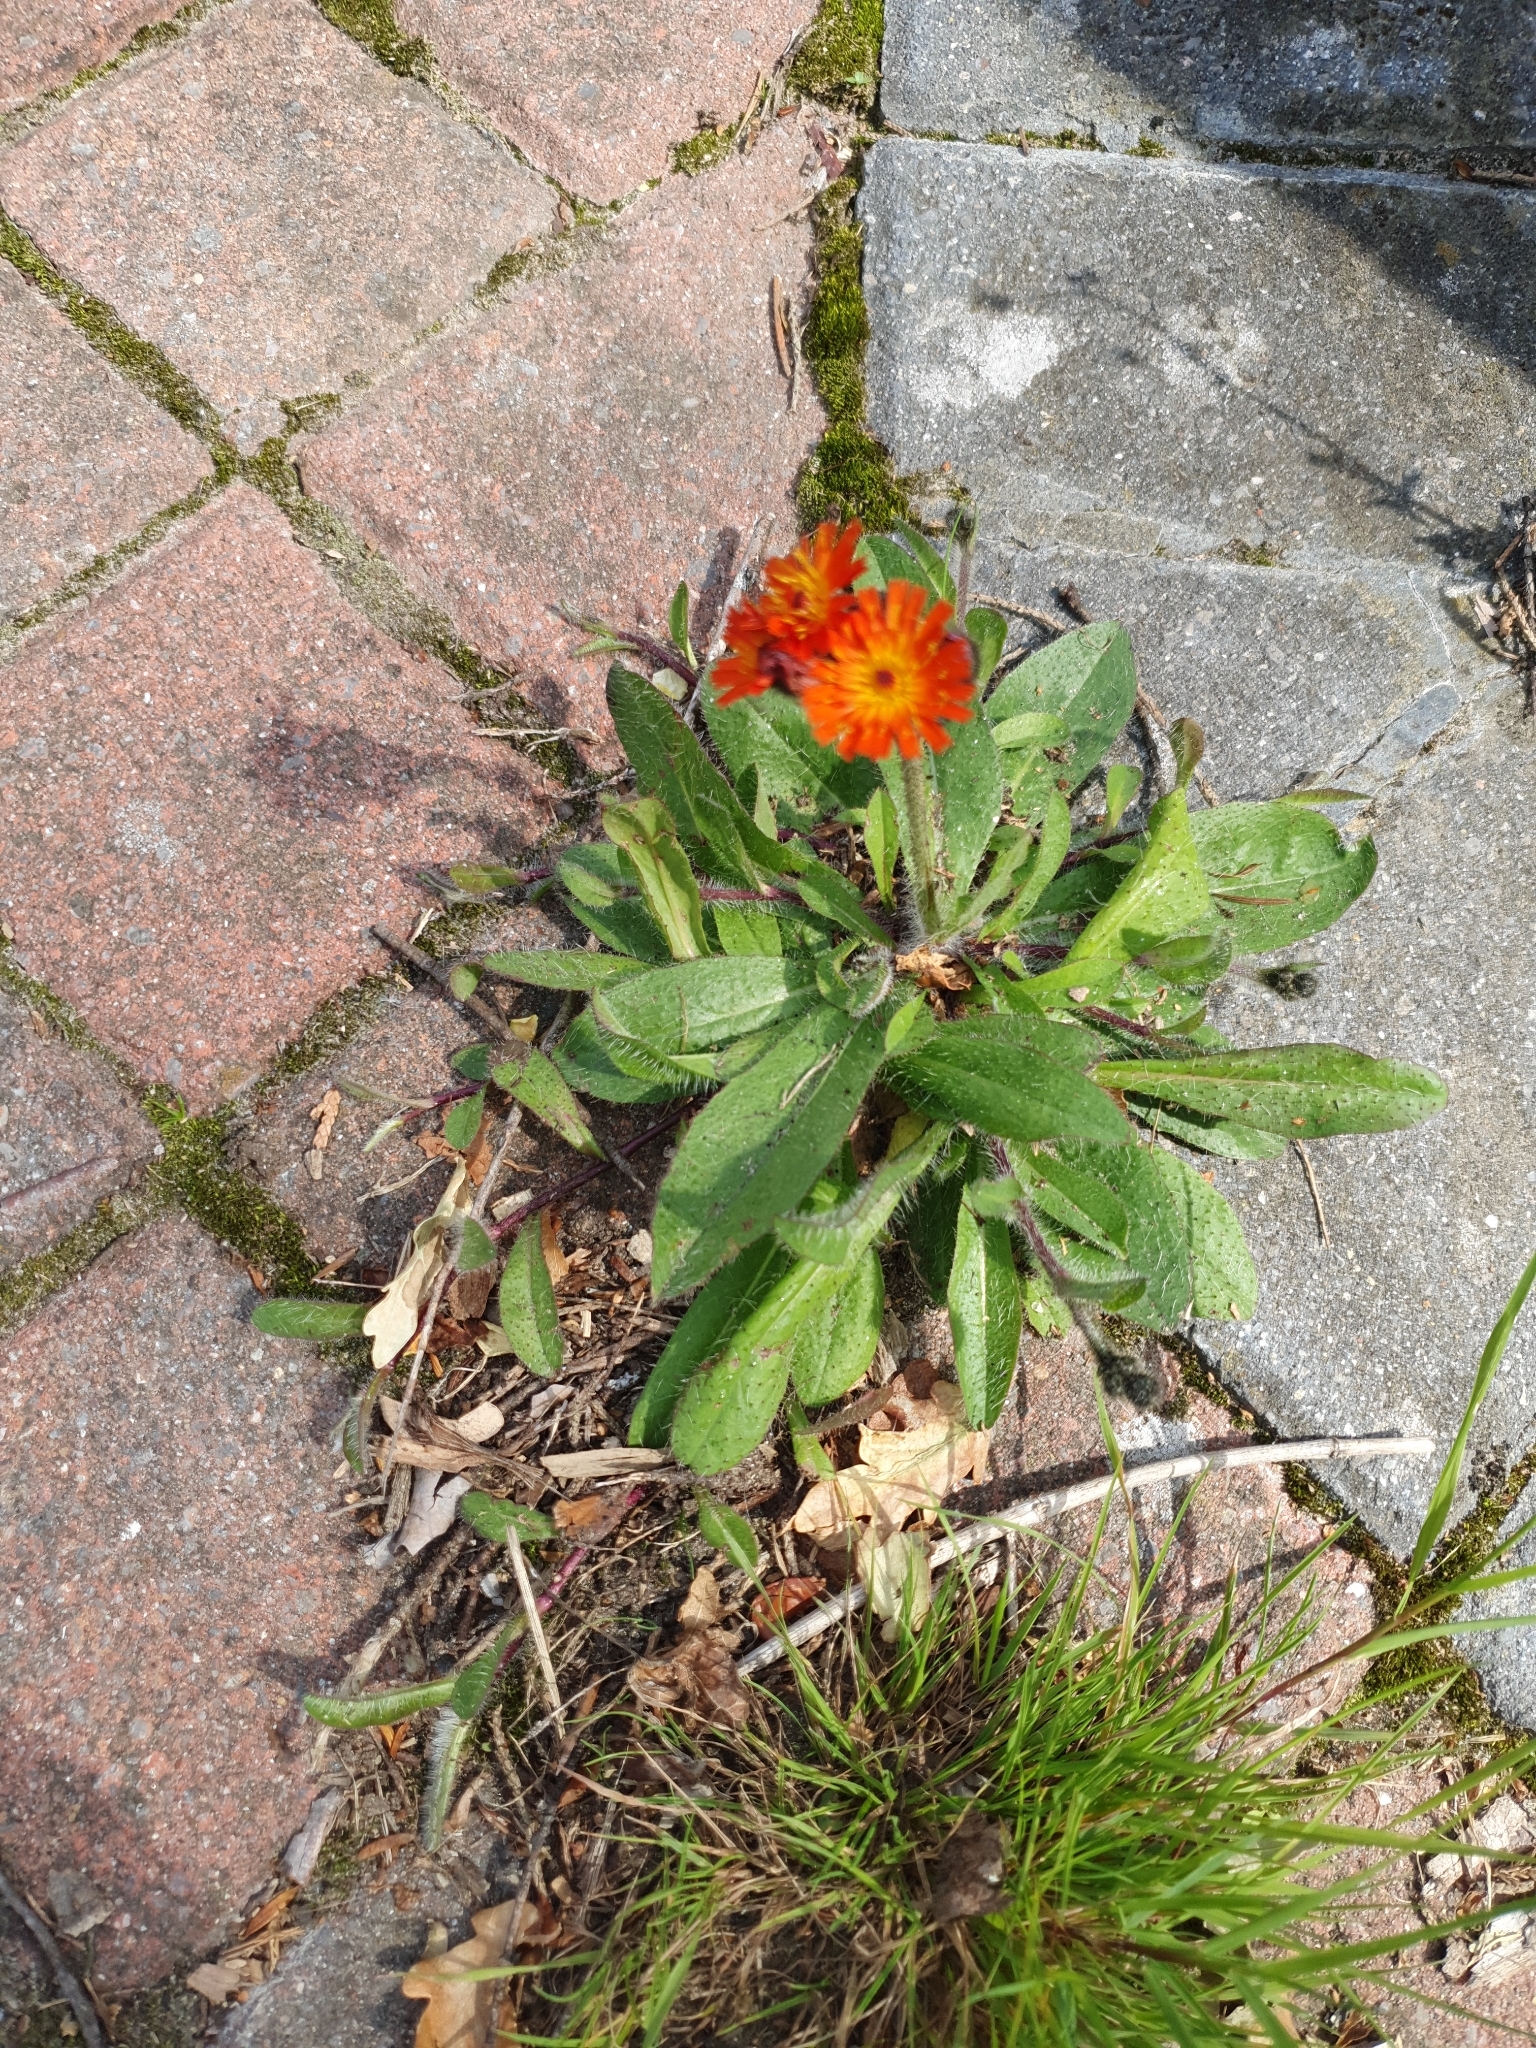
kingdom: Plantae
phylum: Tracheophyta
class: Magnoliopsida
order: Asterales
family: Asteraceae
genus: Pilosella
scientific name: Pilosella aurantiaca
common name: Fox-and-cubs
